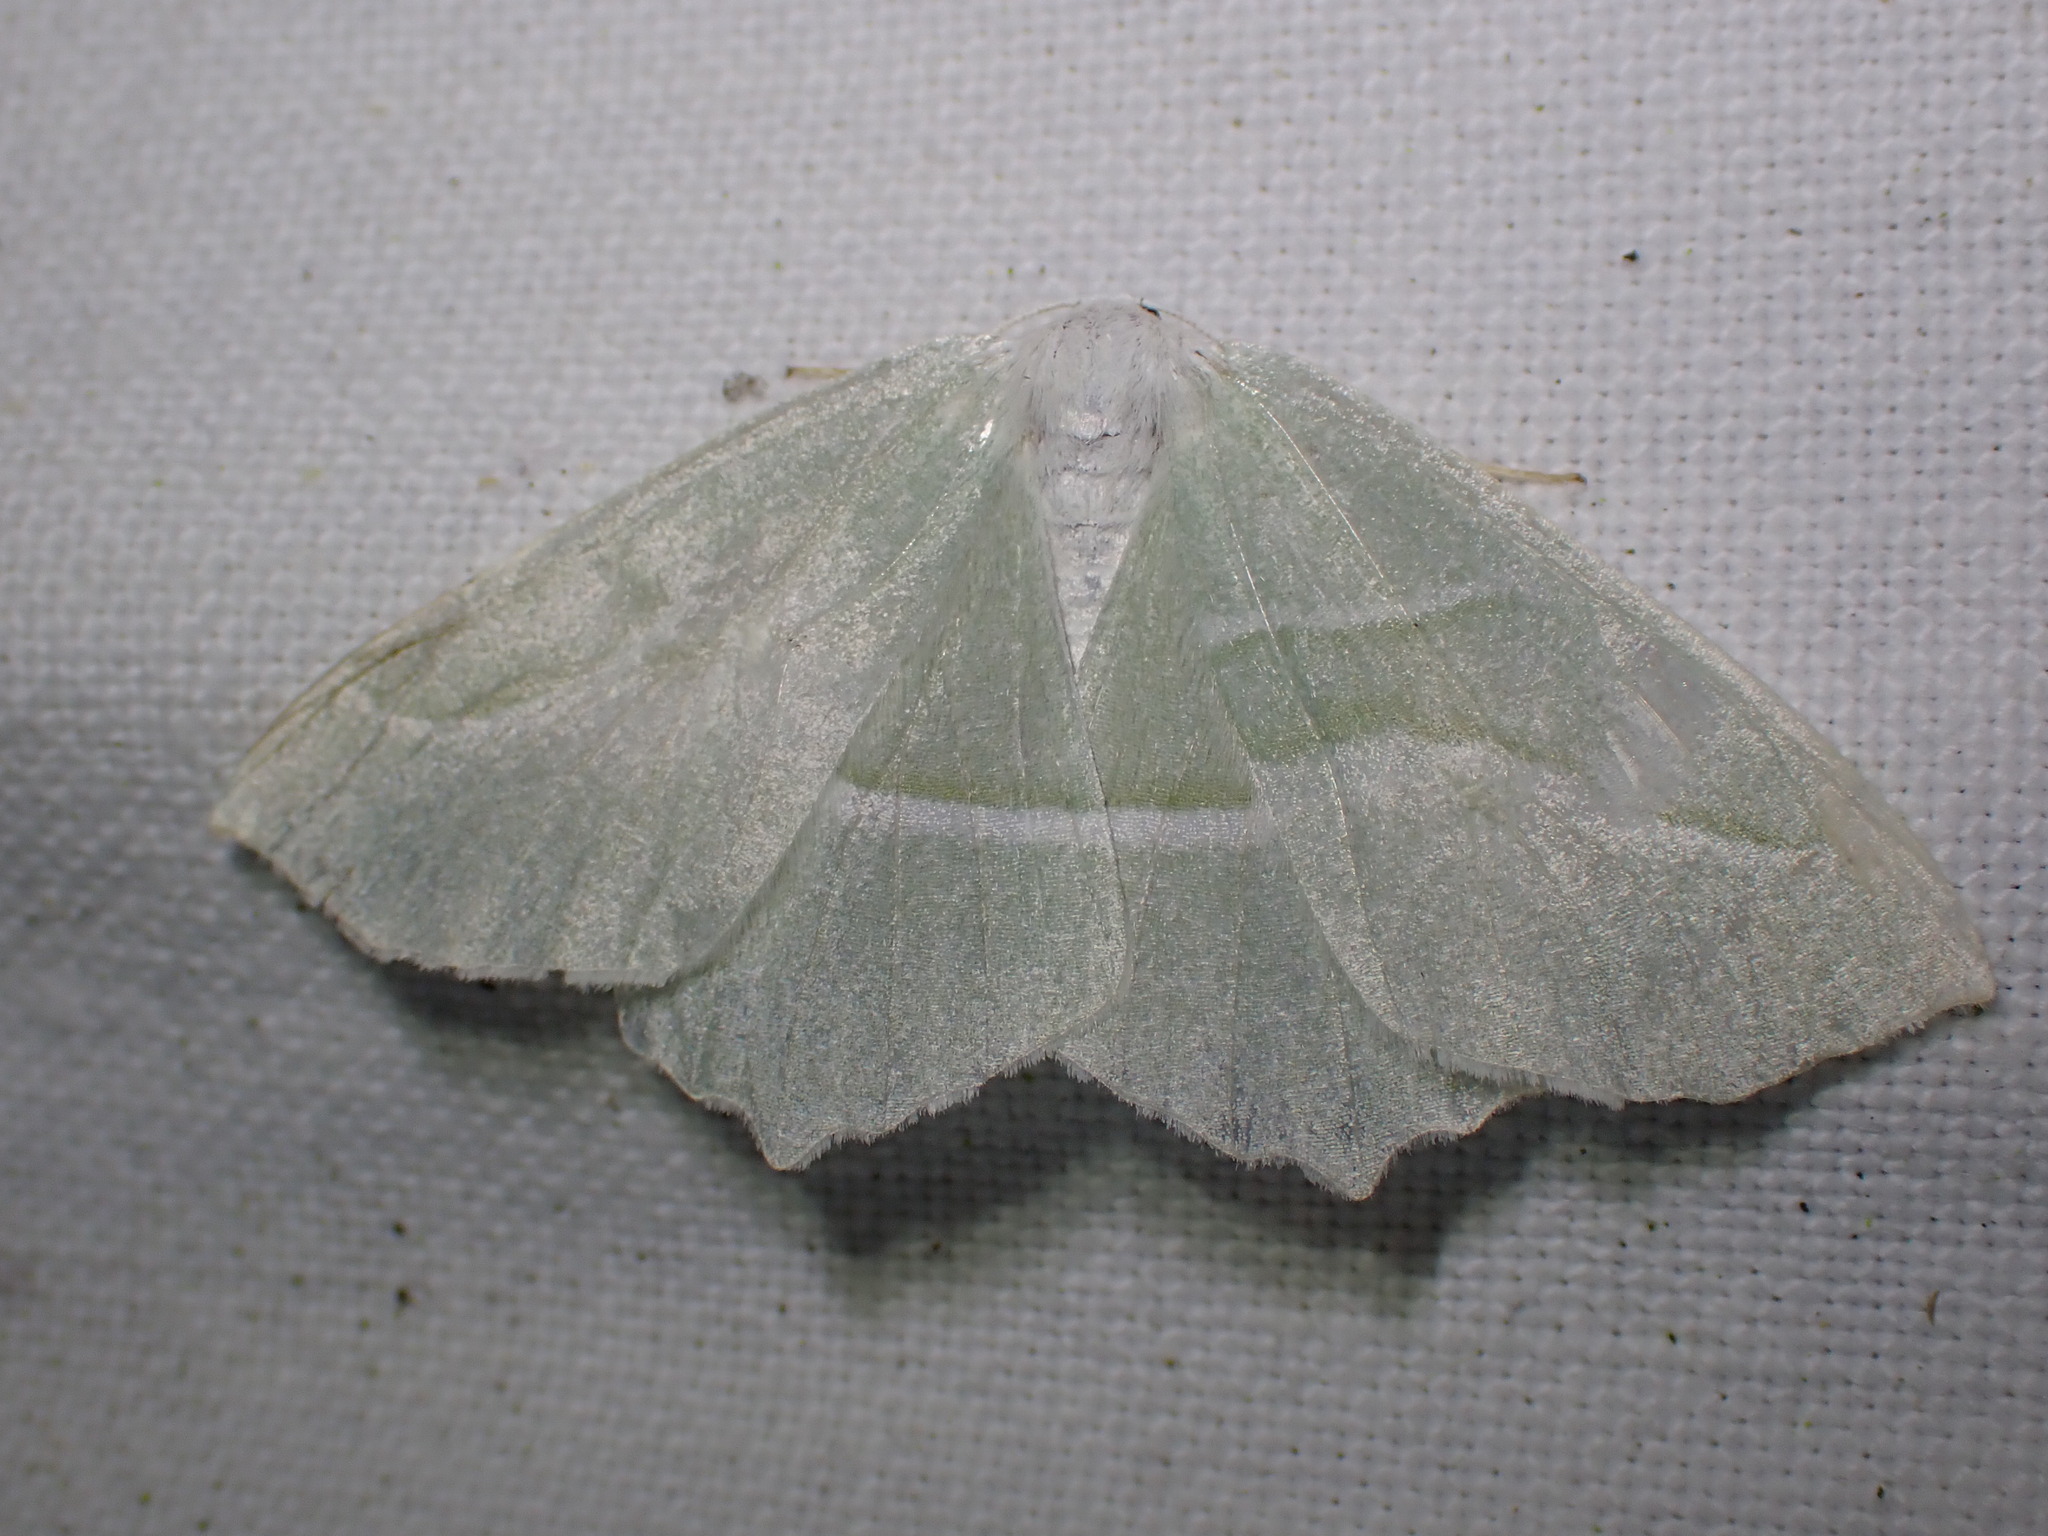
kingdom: Animalia
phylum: Arthropoda
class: Insecta
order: Lepidoptera
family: Geometridae
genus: Campaea
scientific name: Campaea margaritaria
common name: Light emerald
